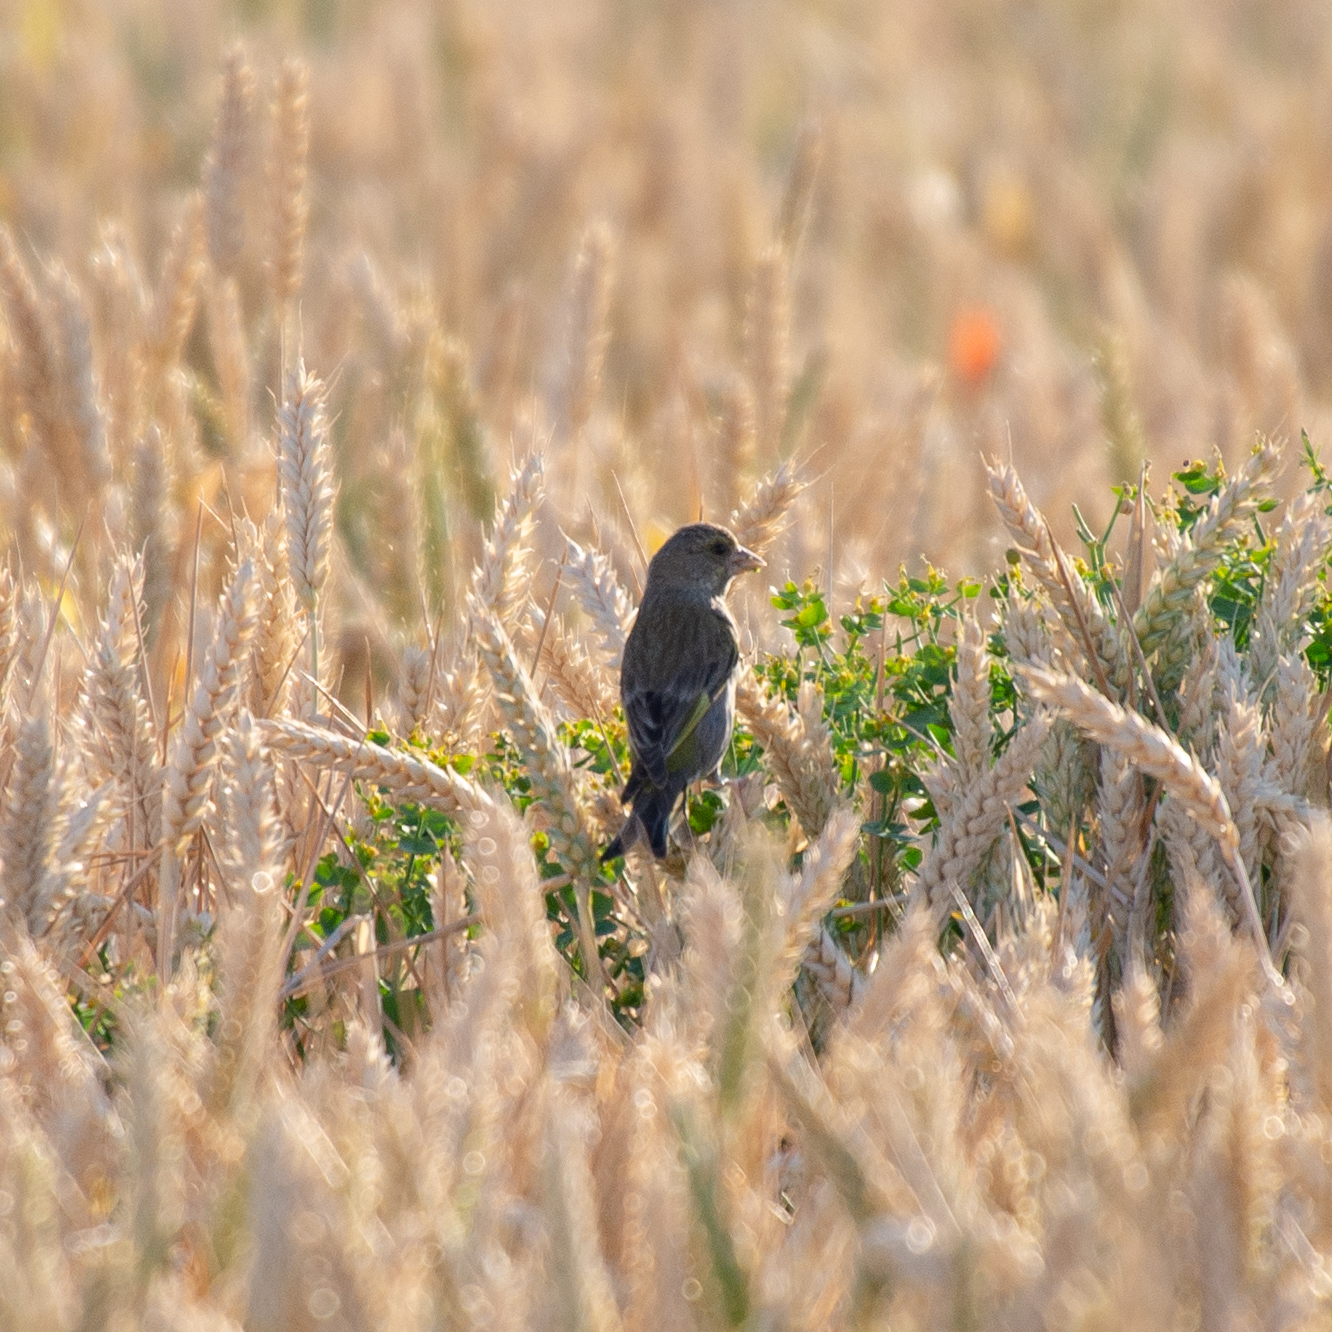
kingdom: Plantae
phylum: Tracheophyta
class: Liliopsida
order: Poales
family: Poaceae
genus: Chloris
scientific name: Chloris chloris
